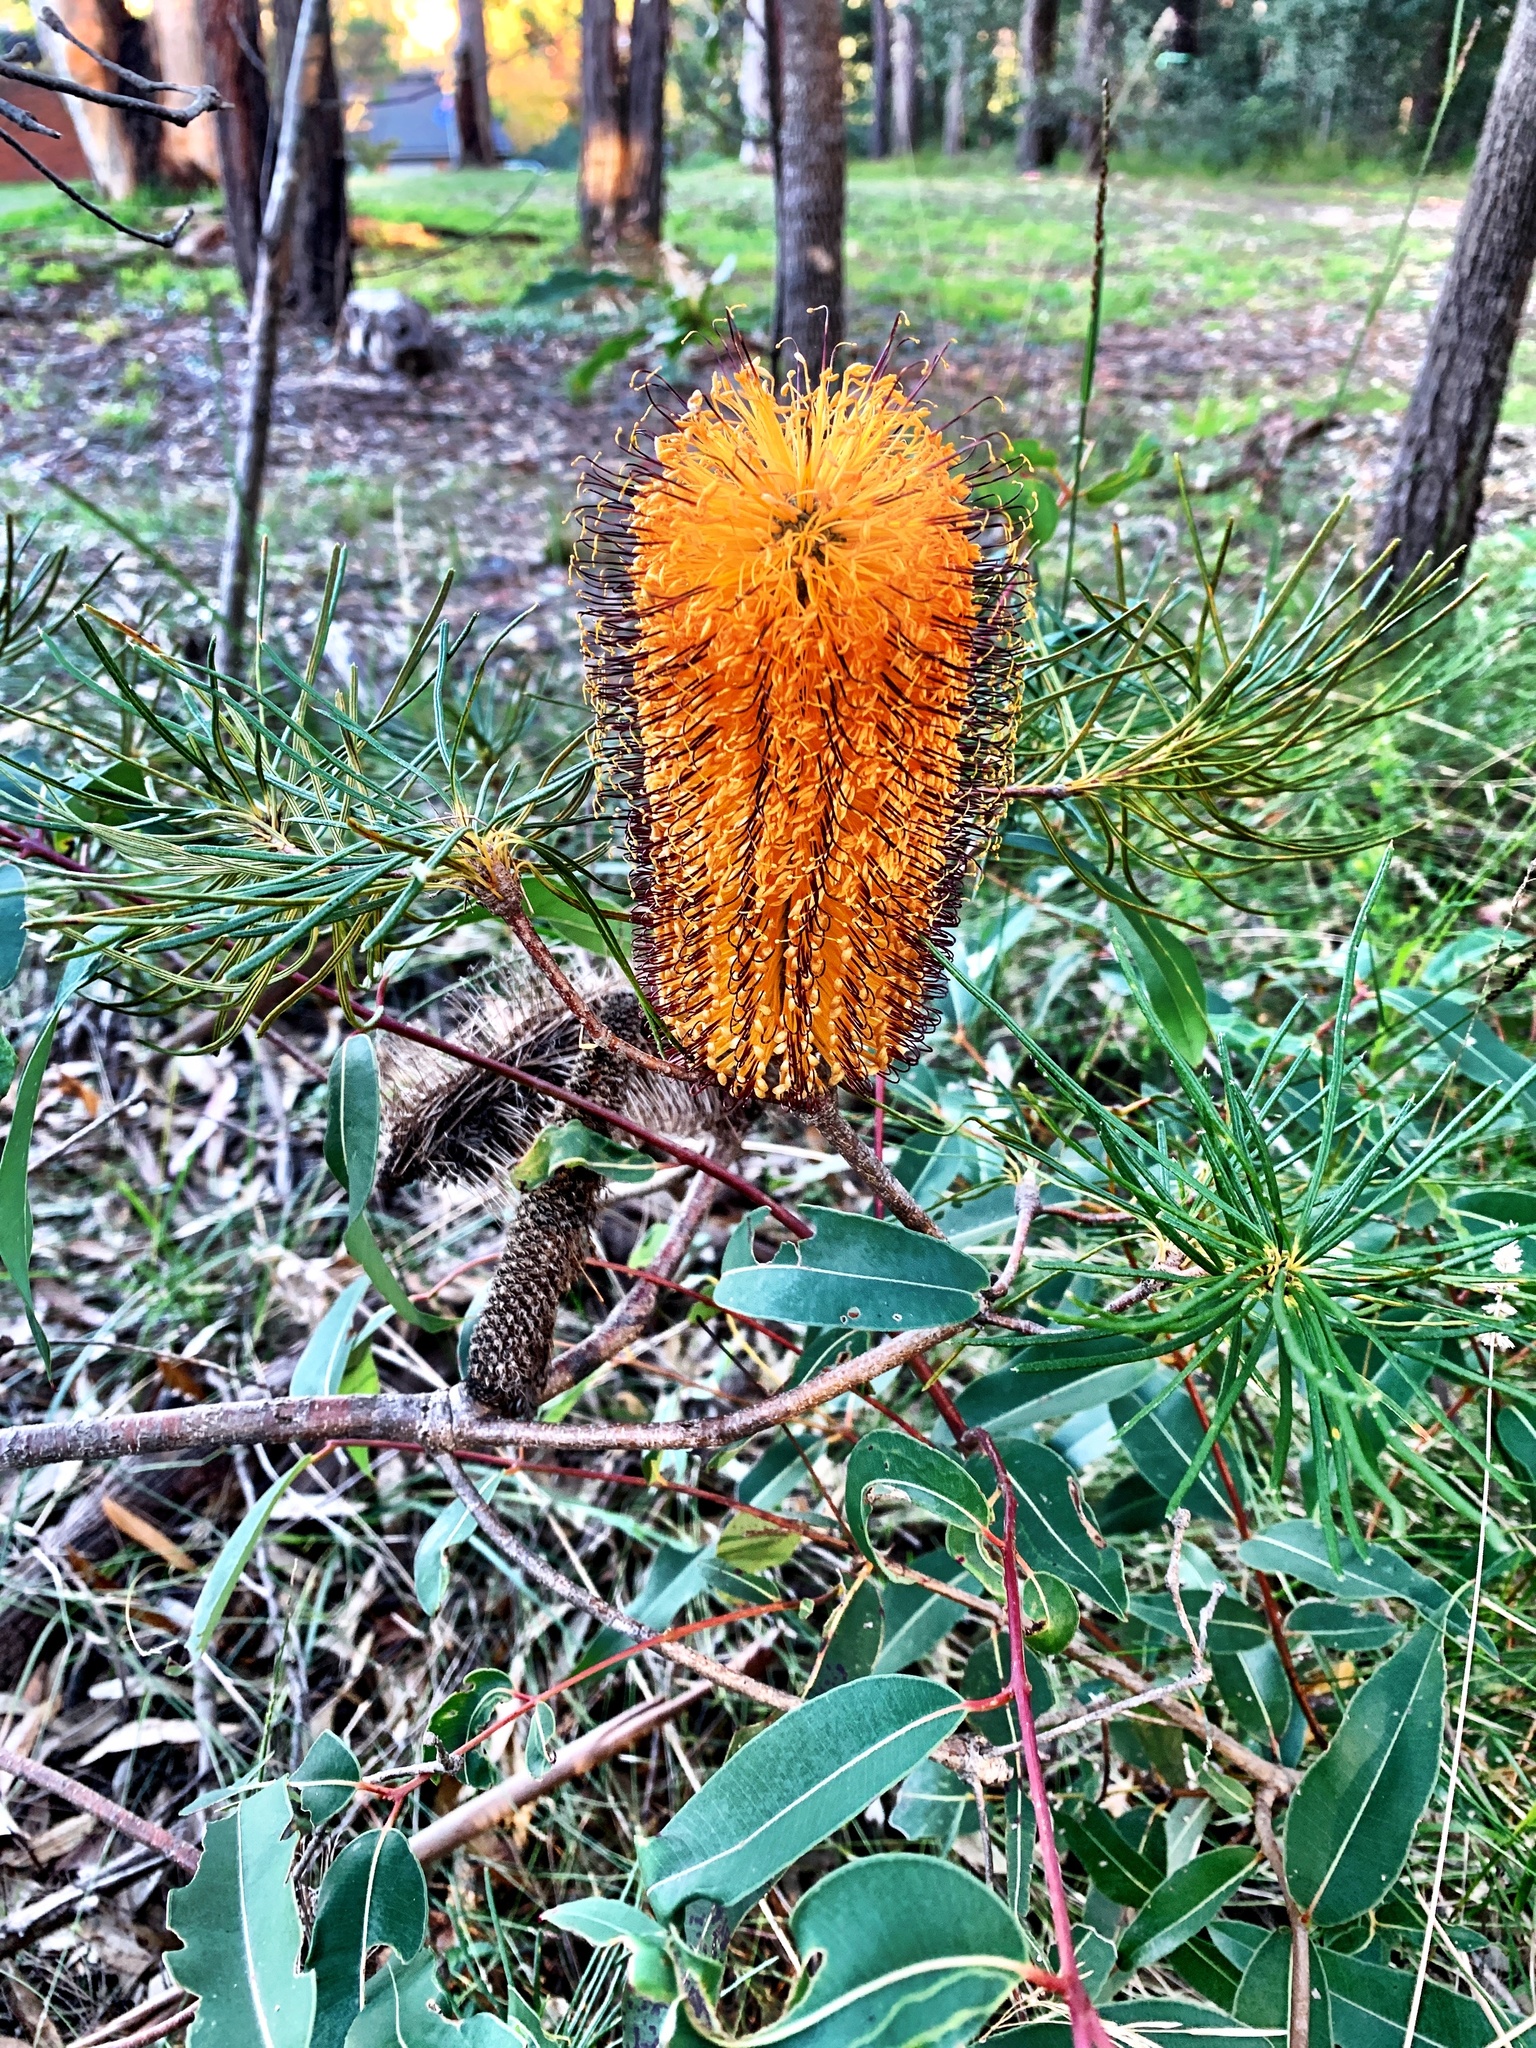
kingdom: Plantae
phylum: Tracheophyta
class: Magnoliopsida
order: Proteales
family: Proteaceae
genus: Banksia
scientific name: Banksia spinulosa
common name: Hairpin banksia
